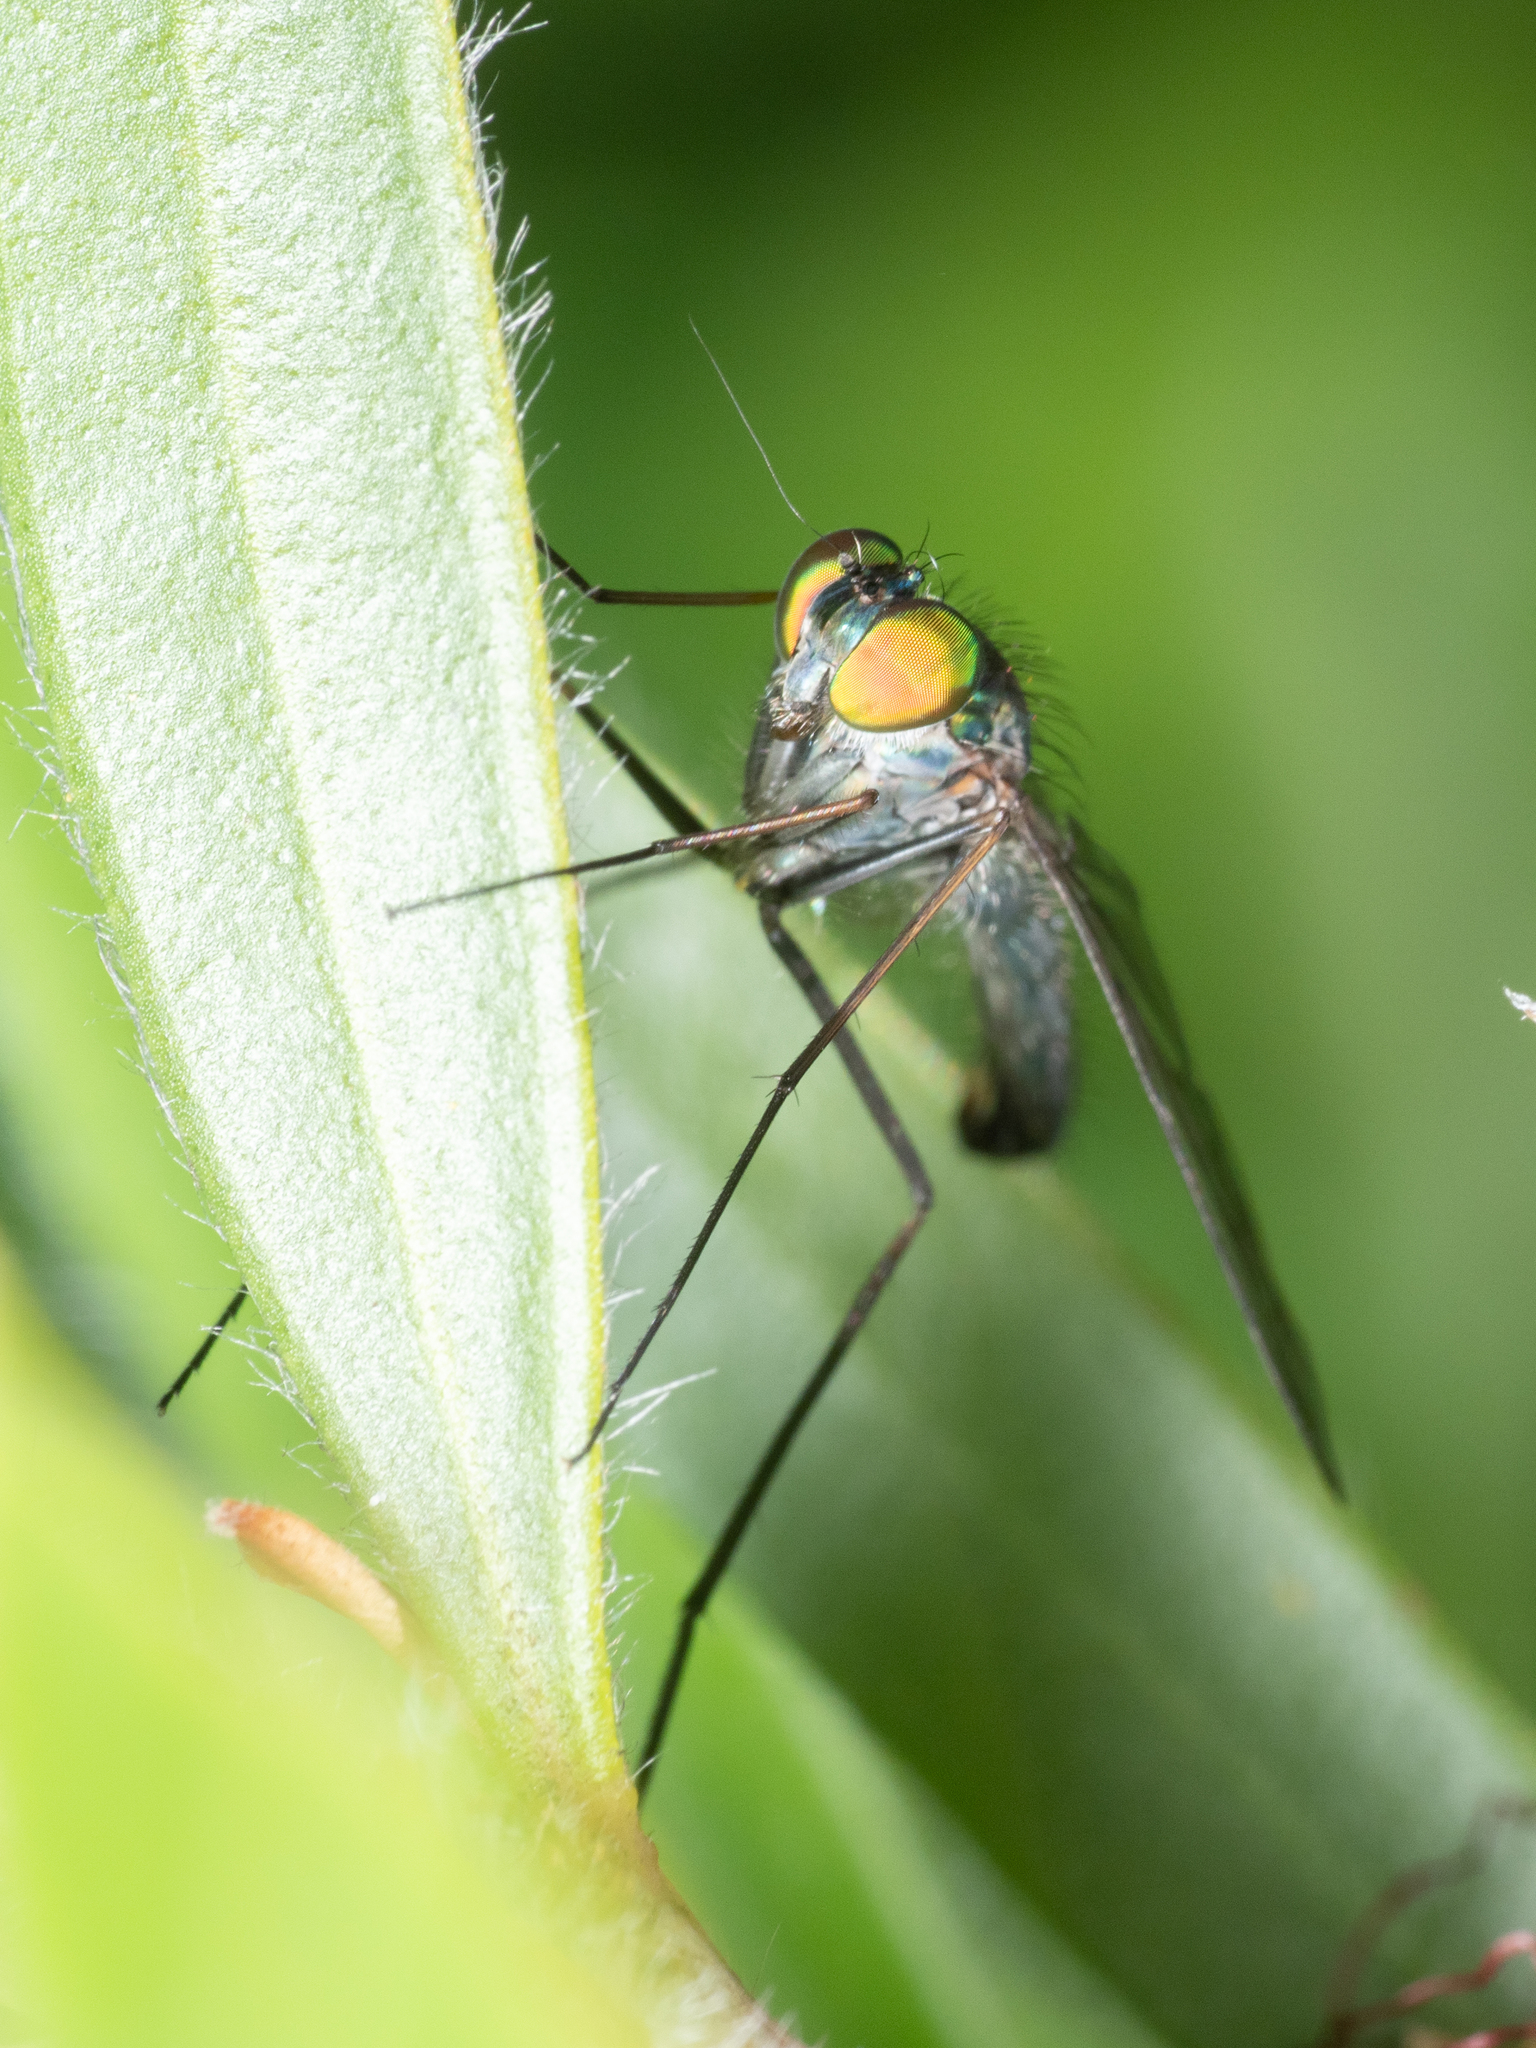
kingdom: Animalia
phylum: Arthropoda
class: Insecta
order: Diptera
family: Dolichopodidae
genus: Heteropsilopus
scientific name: Heteropsilopus cingulipes
